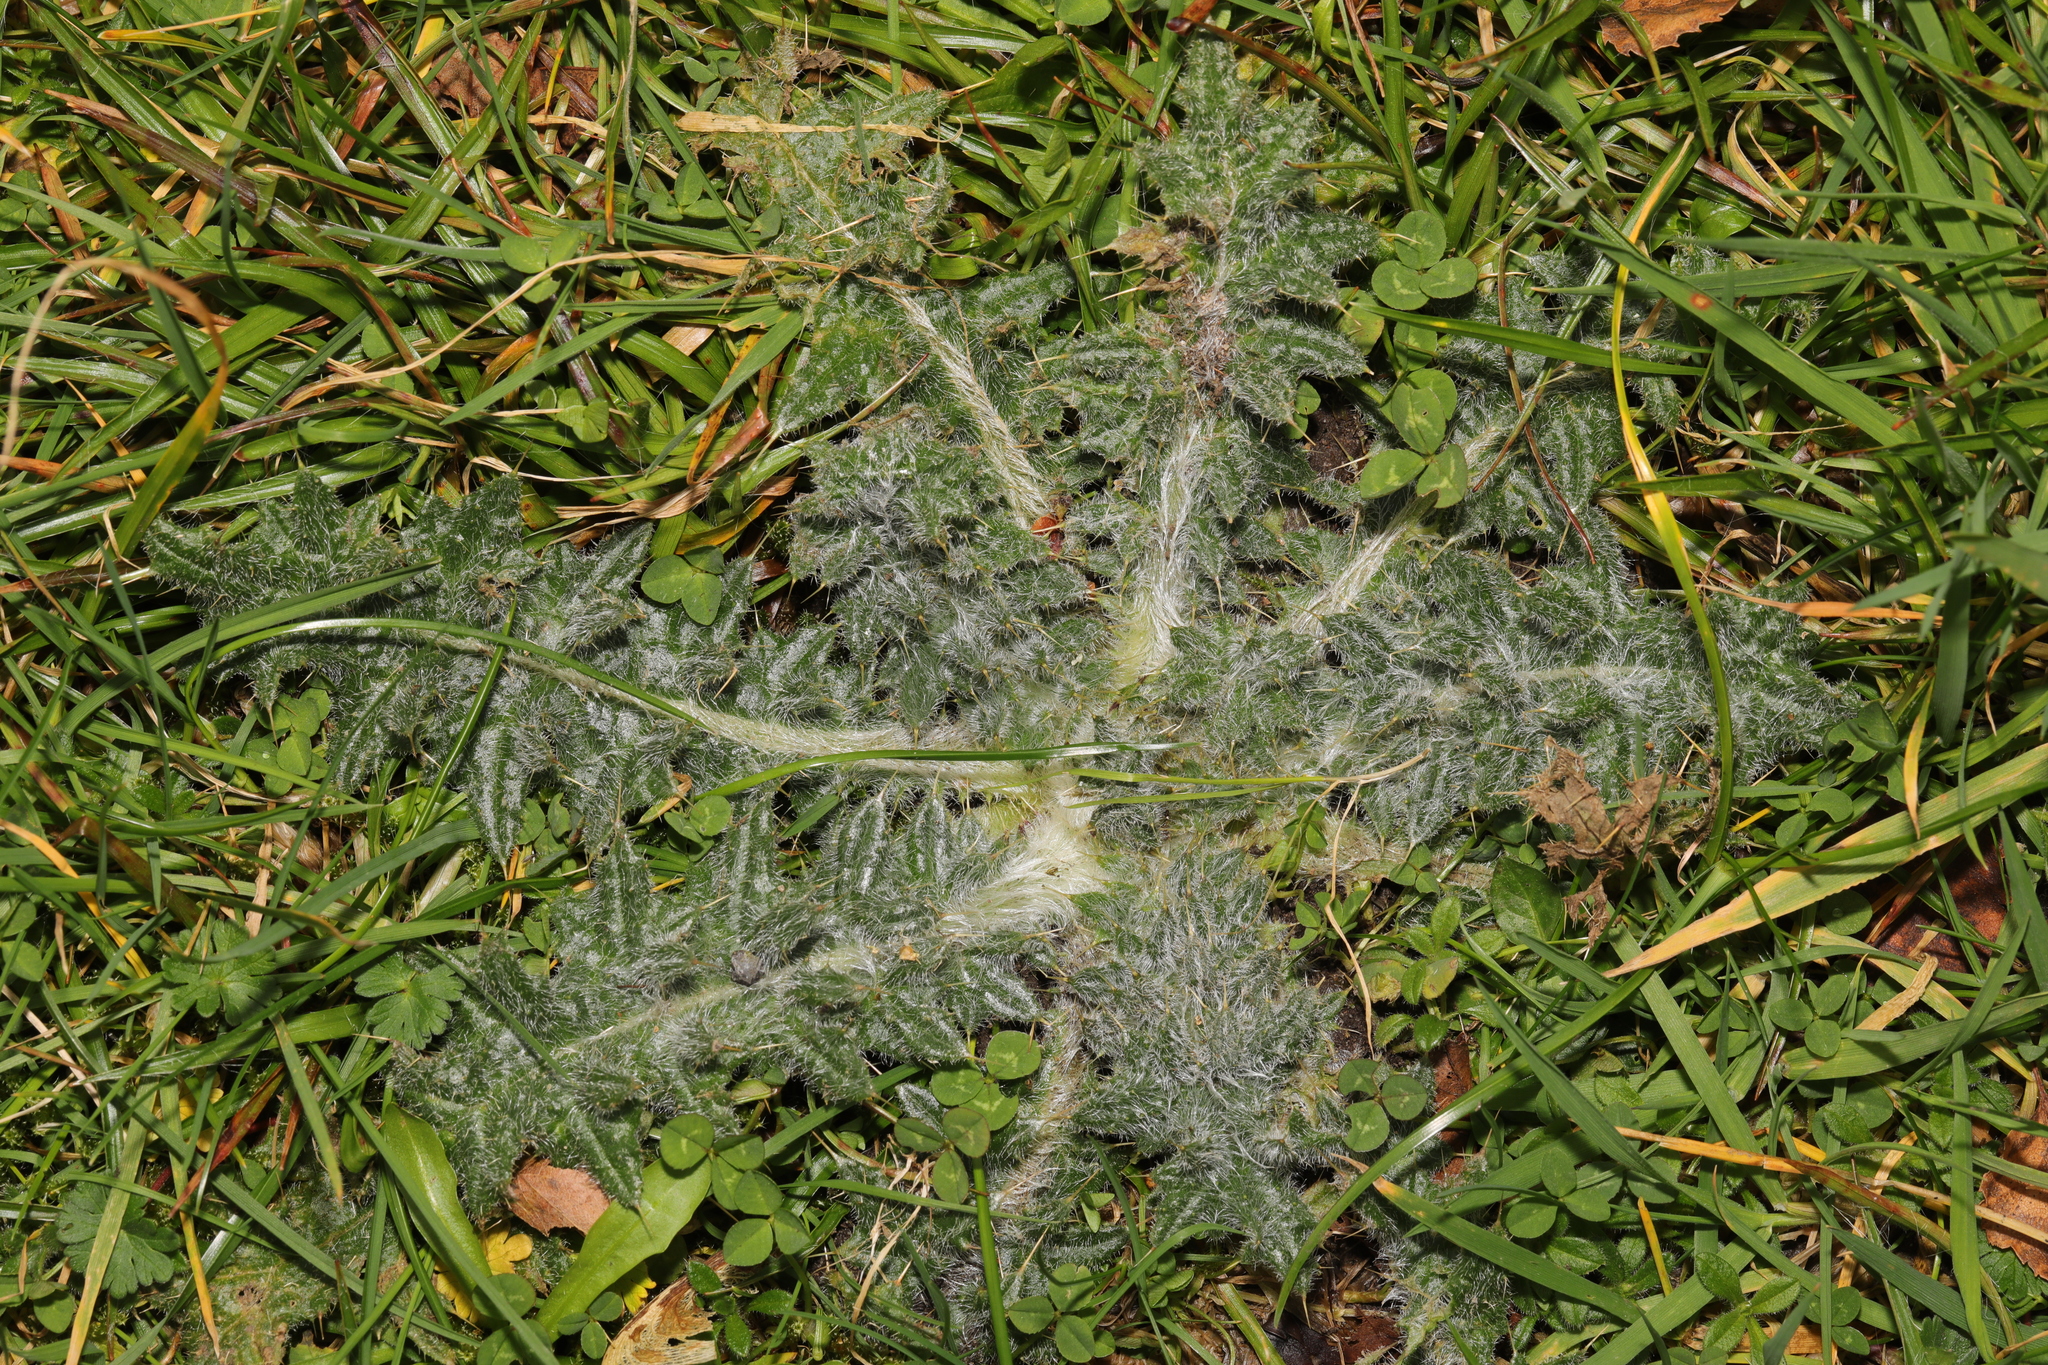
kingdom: Plantae
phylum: Tracheophyta
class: Magnoliopsida
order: Asterales
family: Asteraceae
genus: Cirsium
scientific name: Cirsium vulgare
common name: Bull thistle
